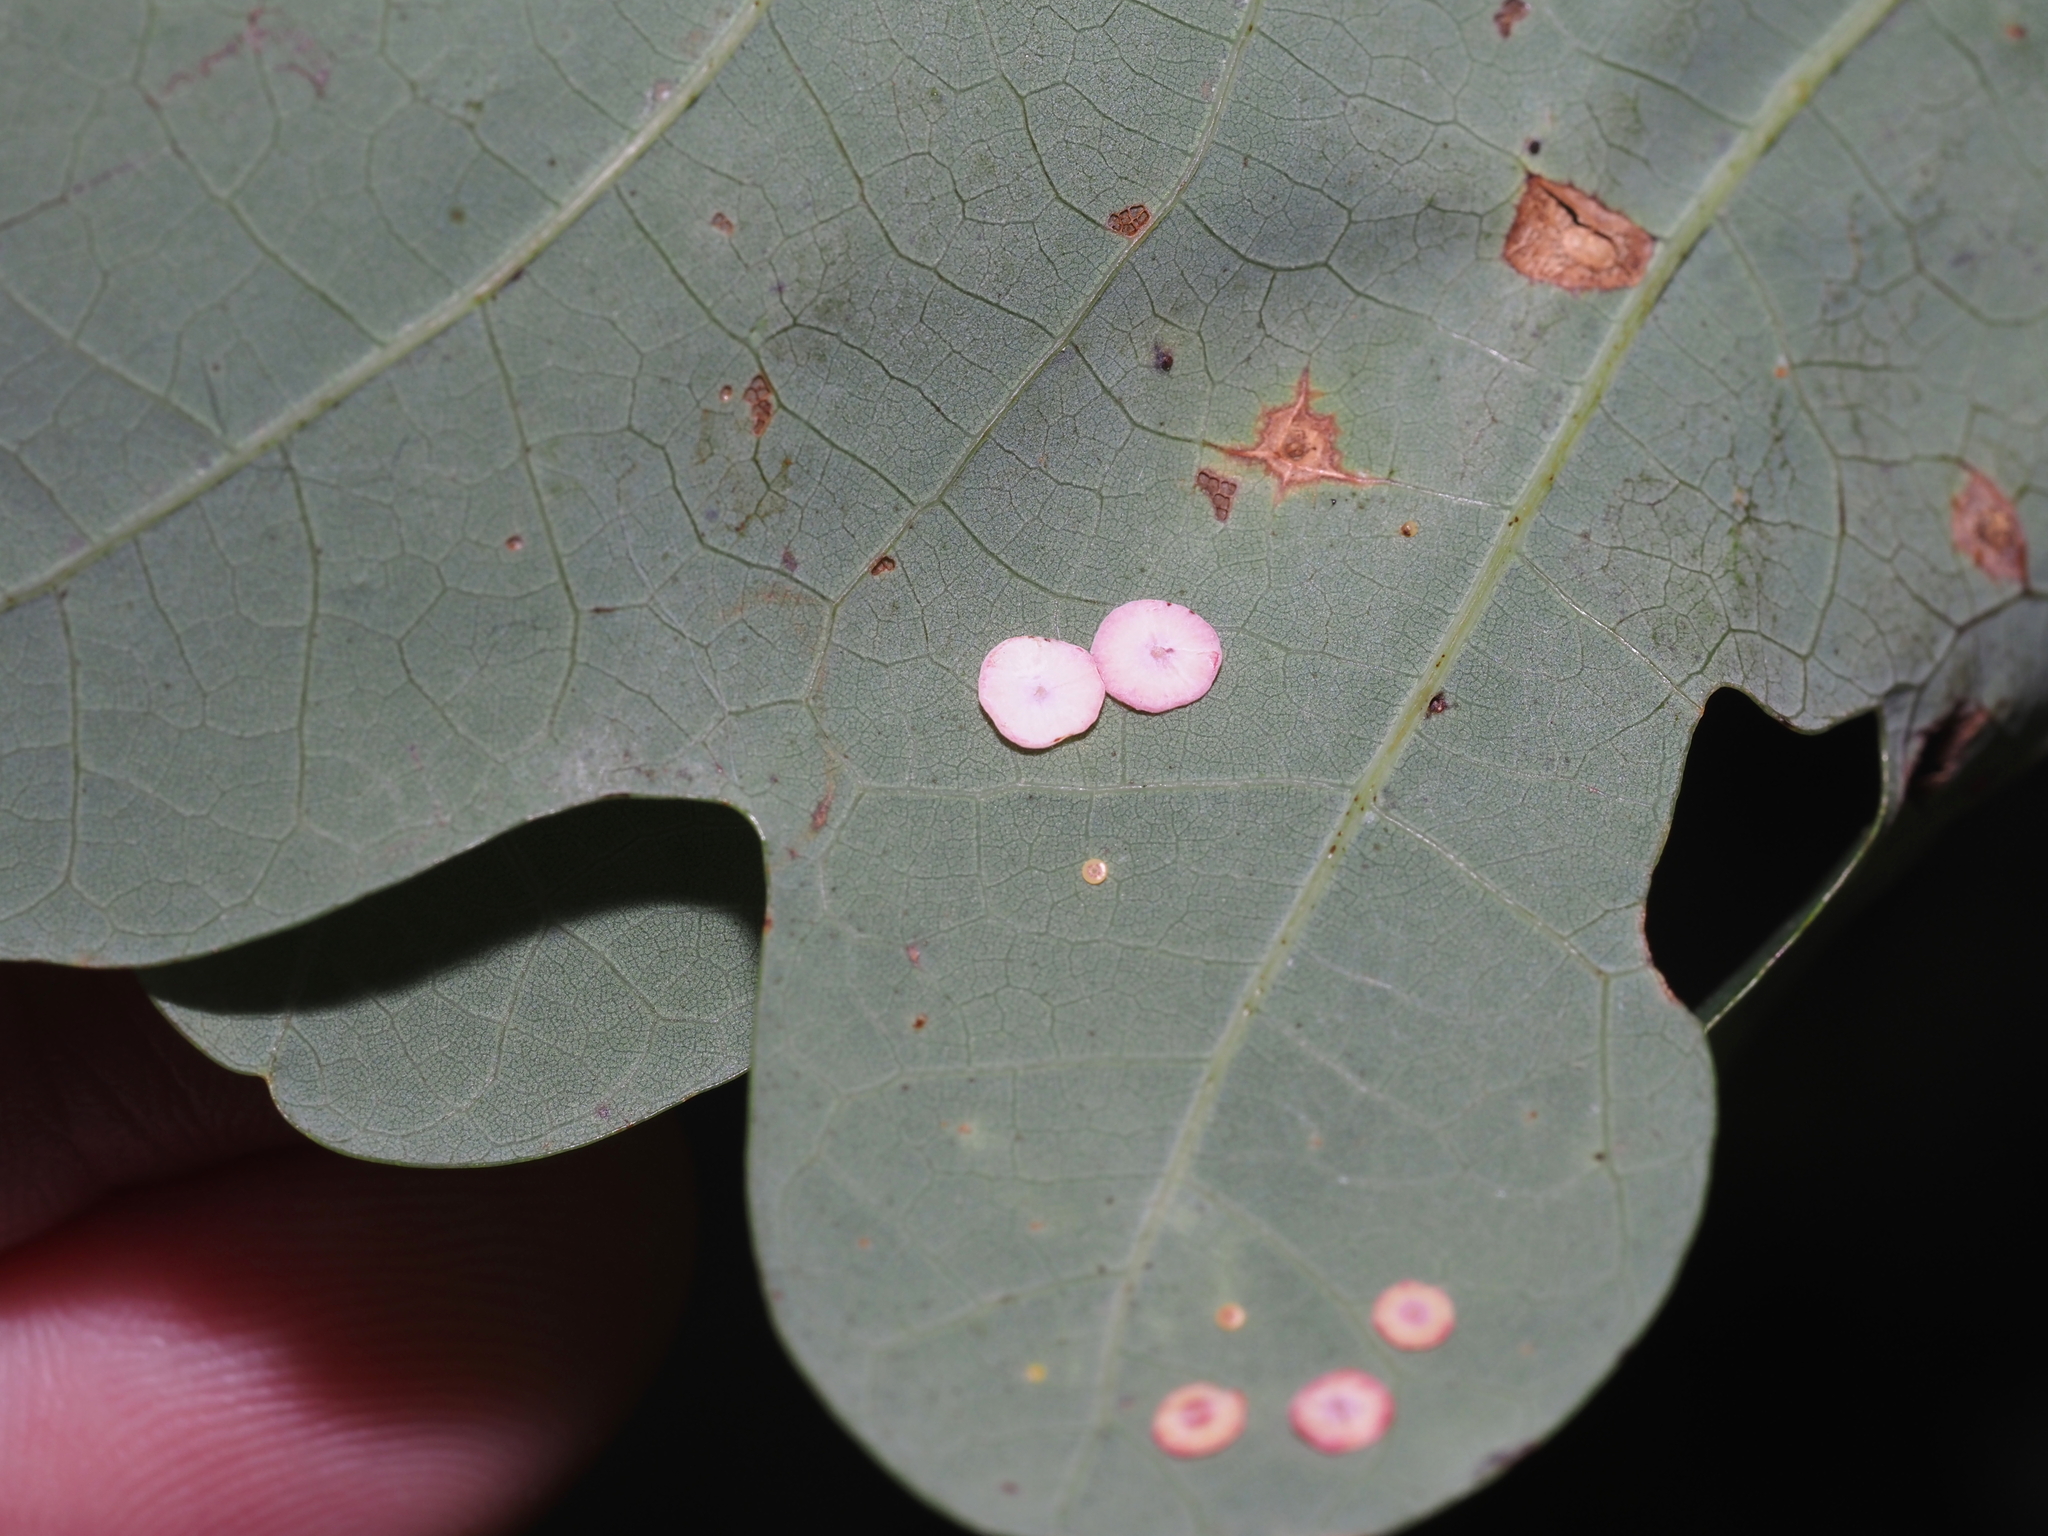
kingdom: Animalia
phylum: Arthropoda
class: Insecta
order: Hymenoptera
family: Cynipidae
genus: Phylloteras
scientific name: Phylloteras poculum
